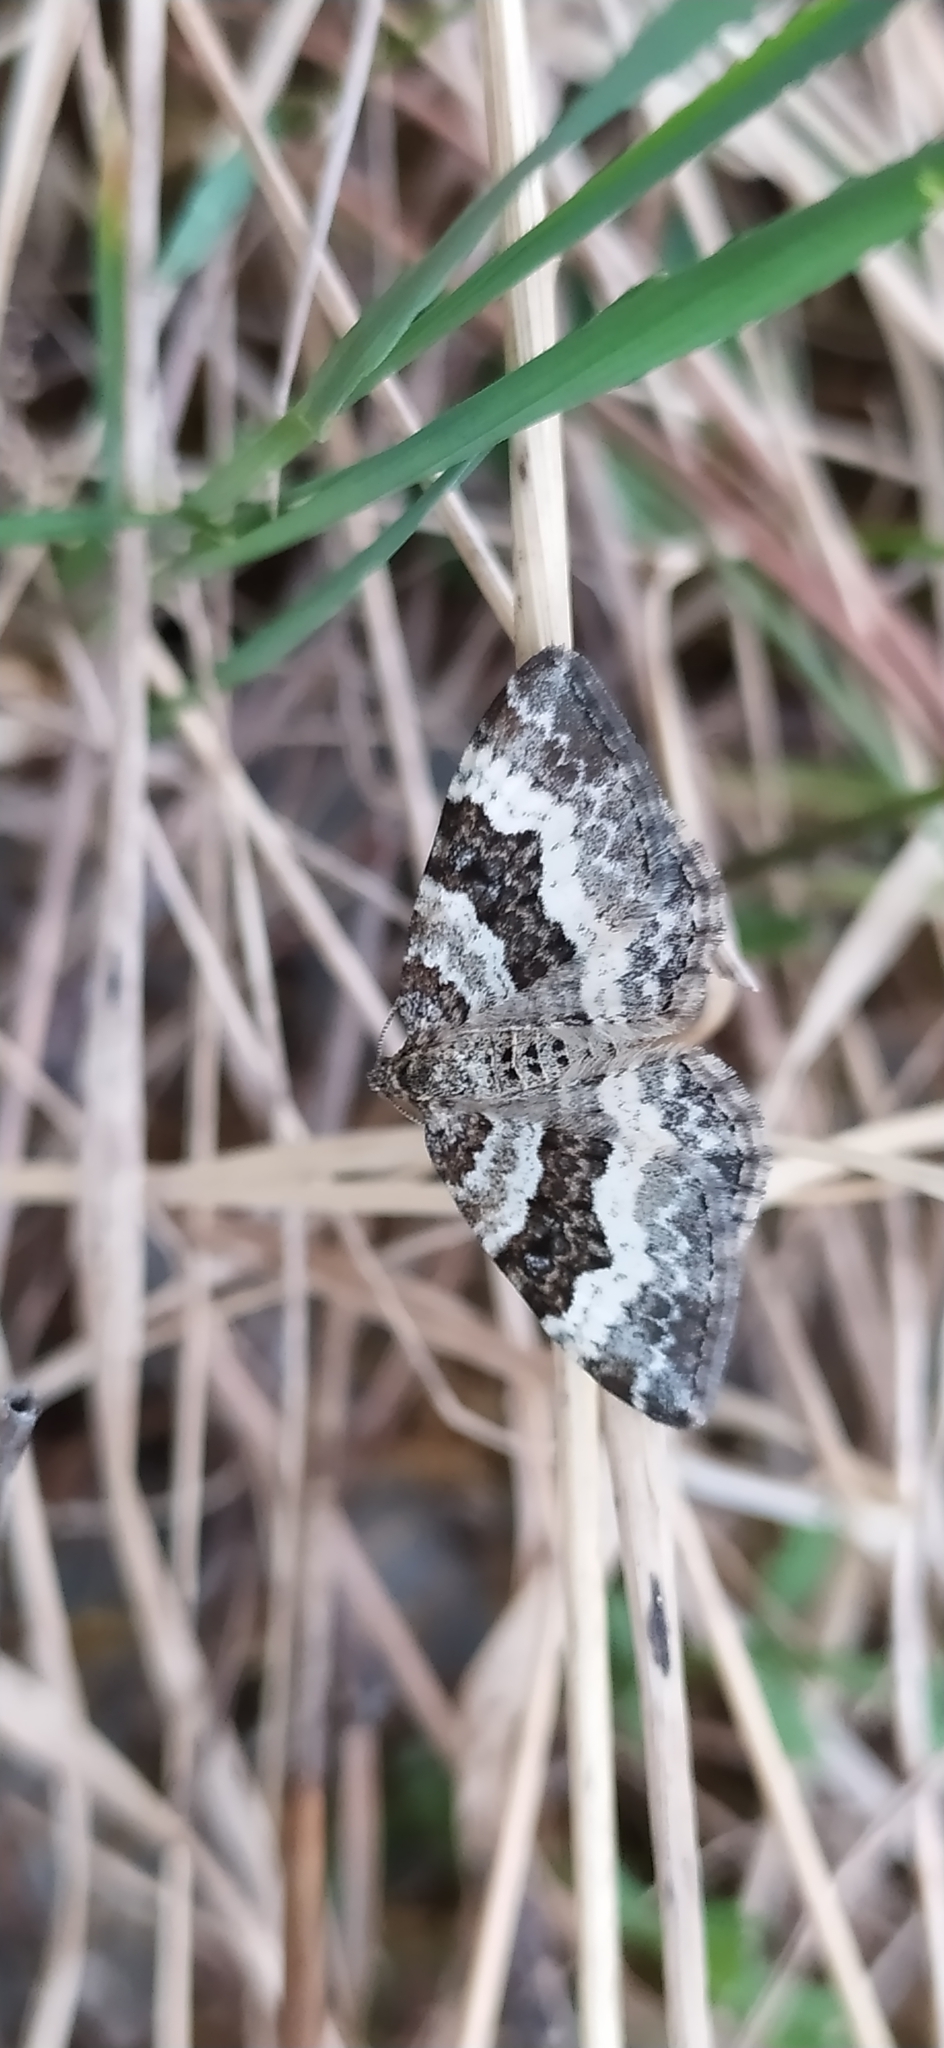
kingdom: Animalia
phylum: Arthropoda
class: Insecta
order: Lepidoptera
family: Geometridae
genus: Epirrhoe
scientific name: Epirrhoe alternata
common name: Common carpet
